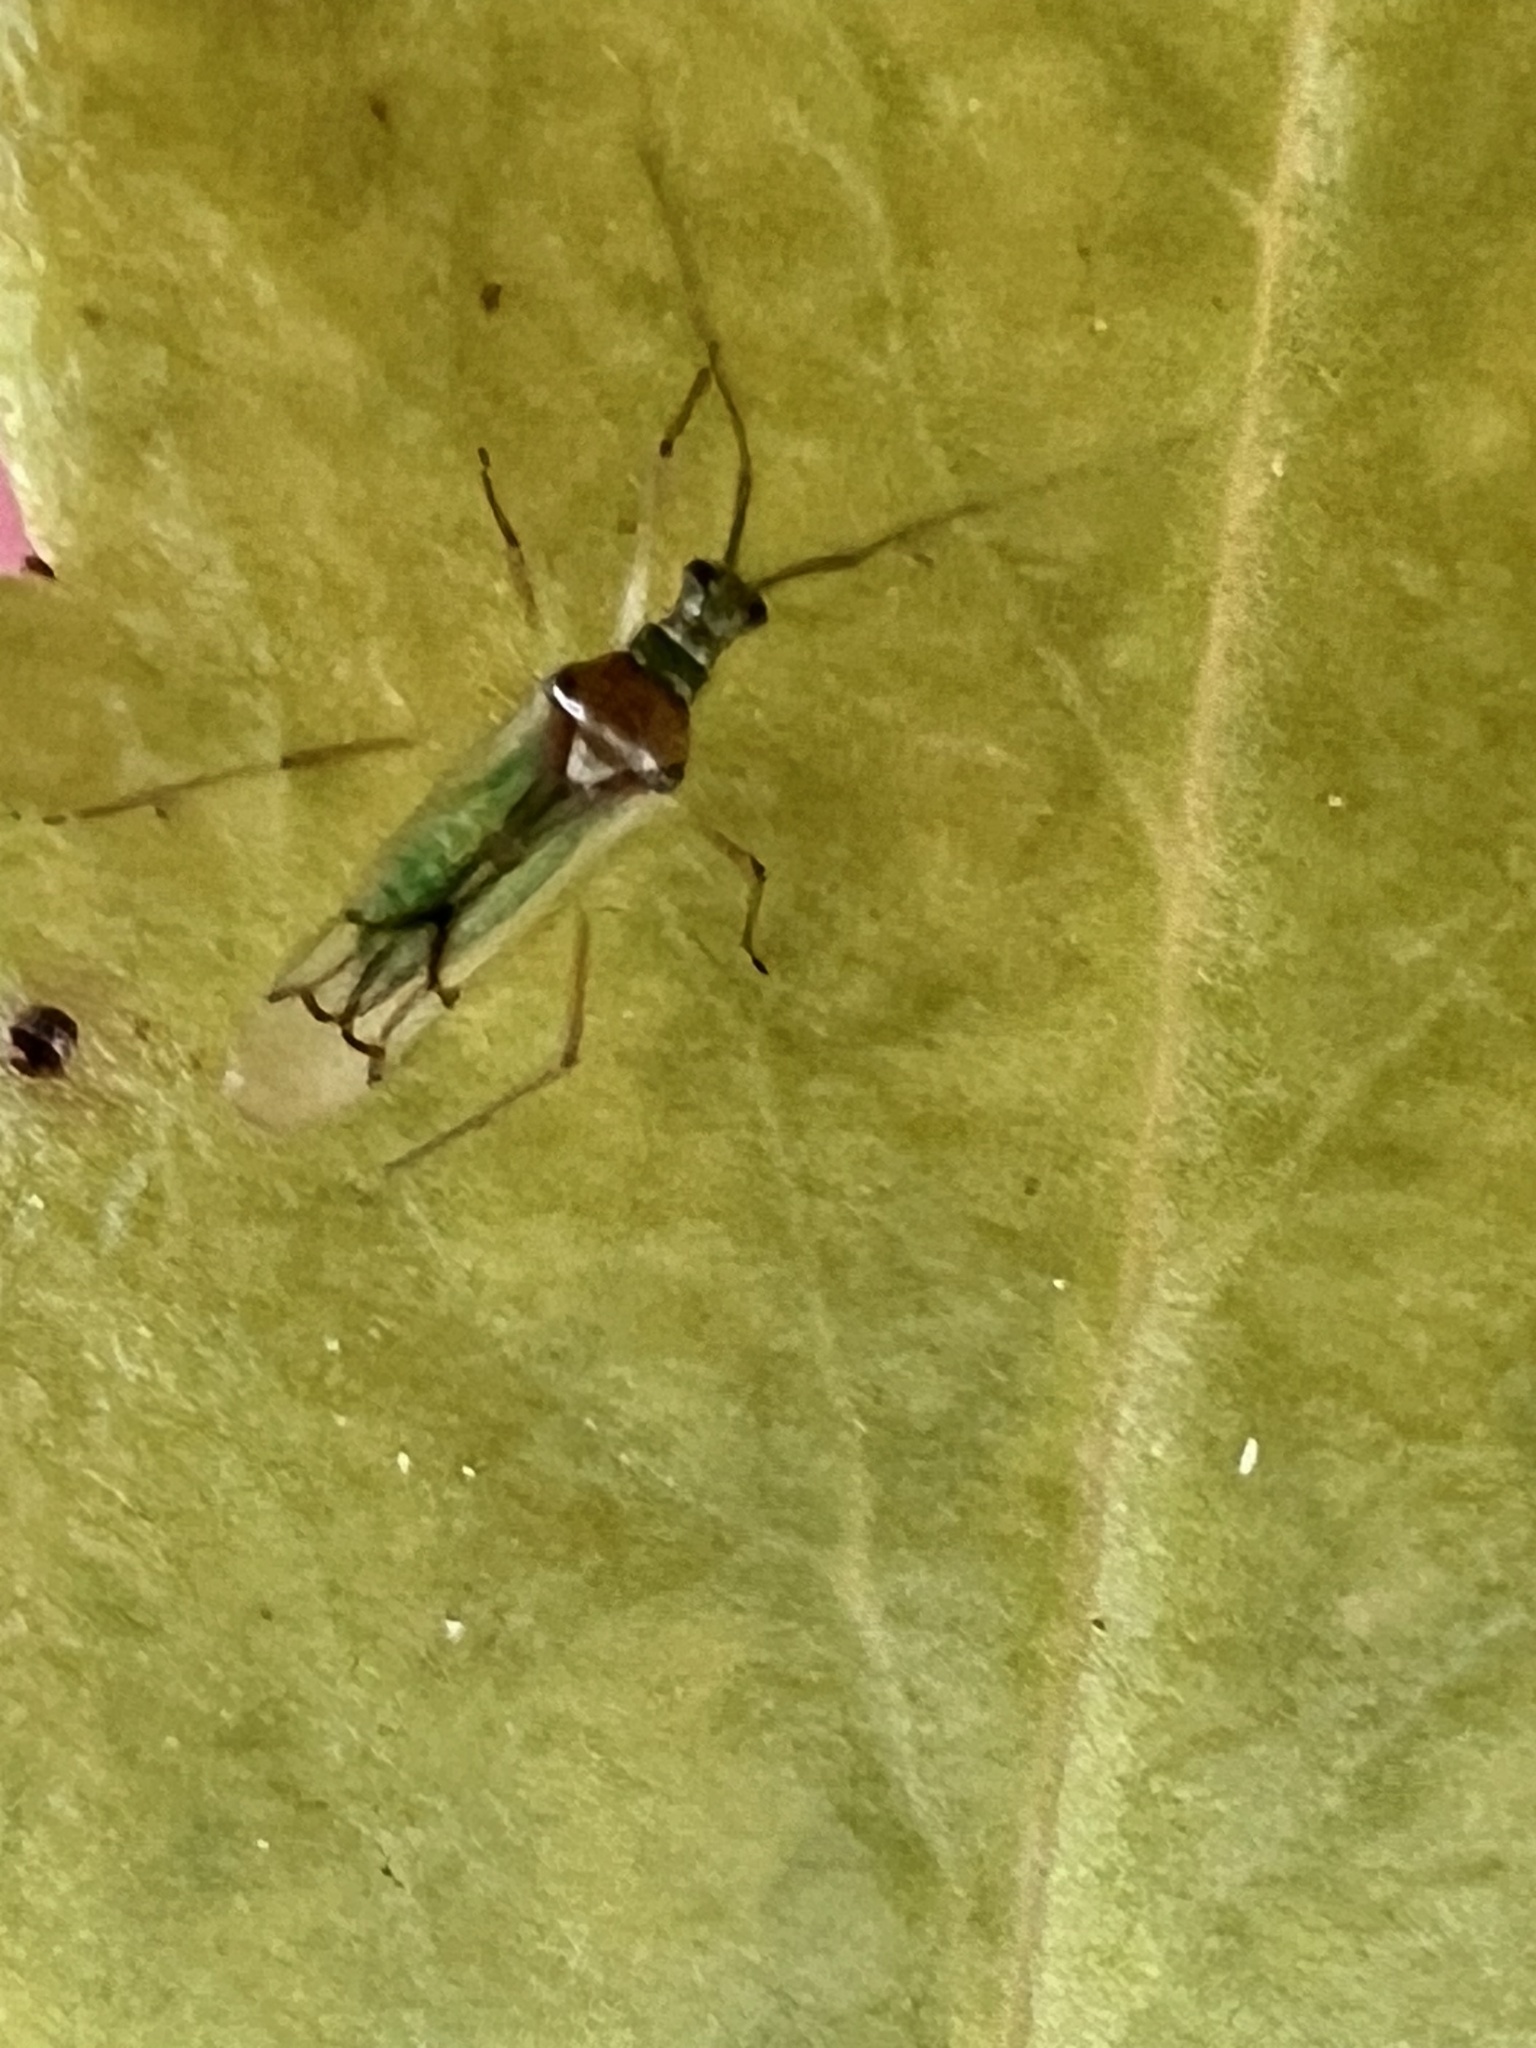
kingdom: Animalia
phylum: Arthropoda
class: Insecta
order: Hemiptera
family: Miridae
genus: Felisacus
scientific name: Felisacus elegantulus
